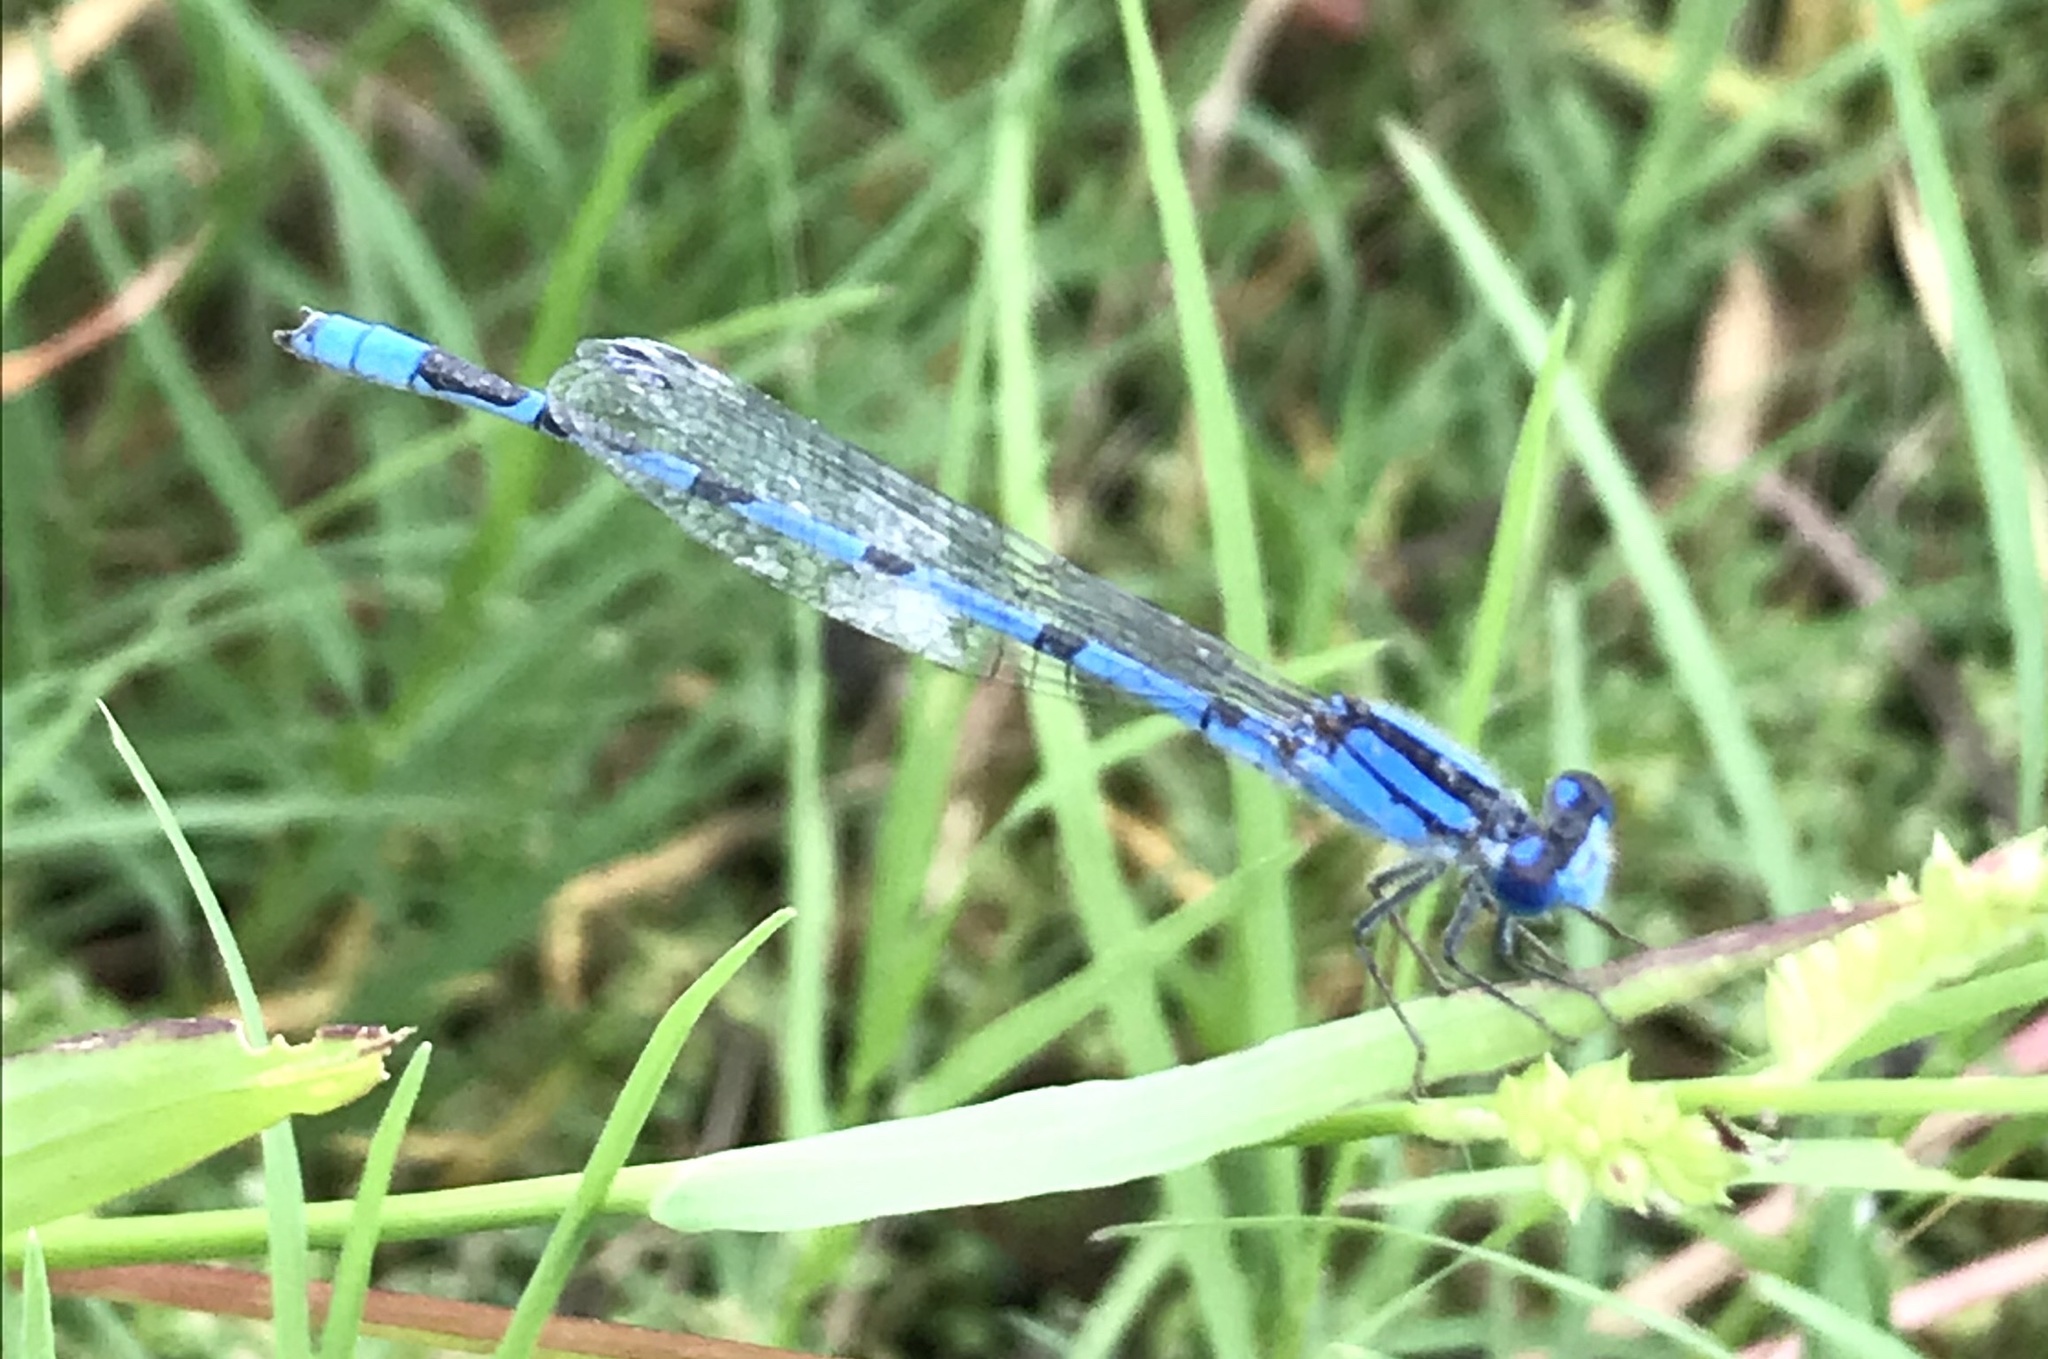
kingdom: Animalia
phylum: Arthropoda
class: Insecta
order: Odonata
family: Coenagrionidae
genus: Enallagma
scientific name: Enallagma civile
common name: Damselfly
